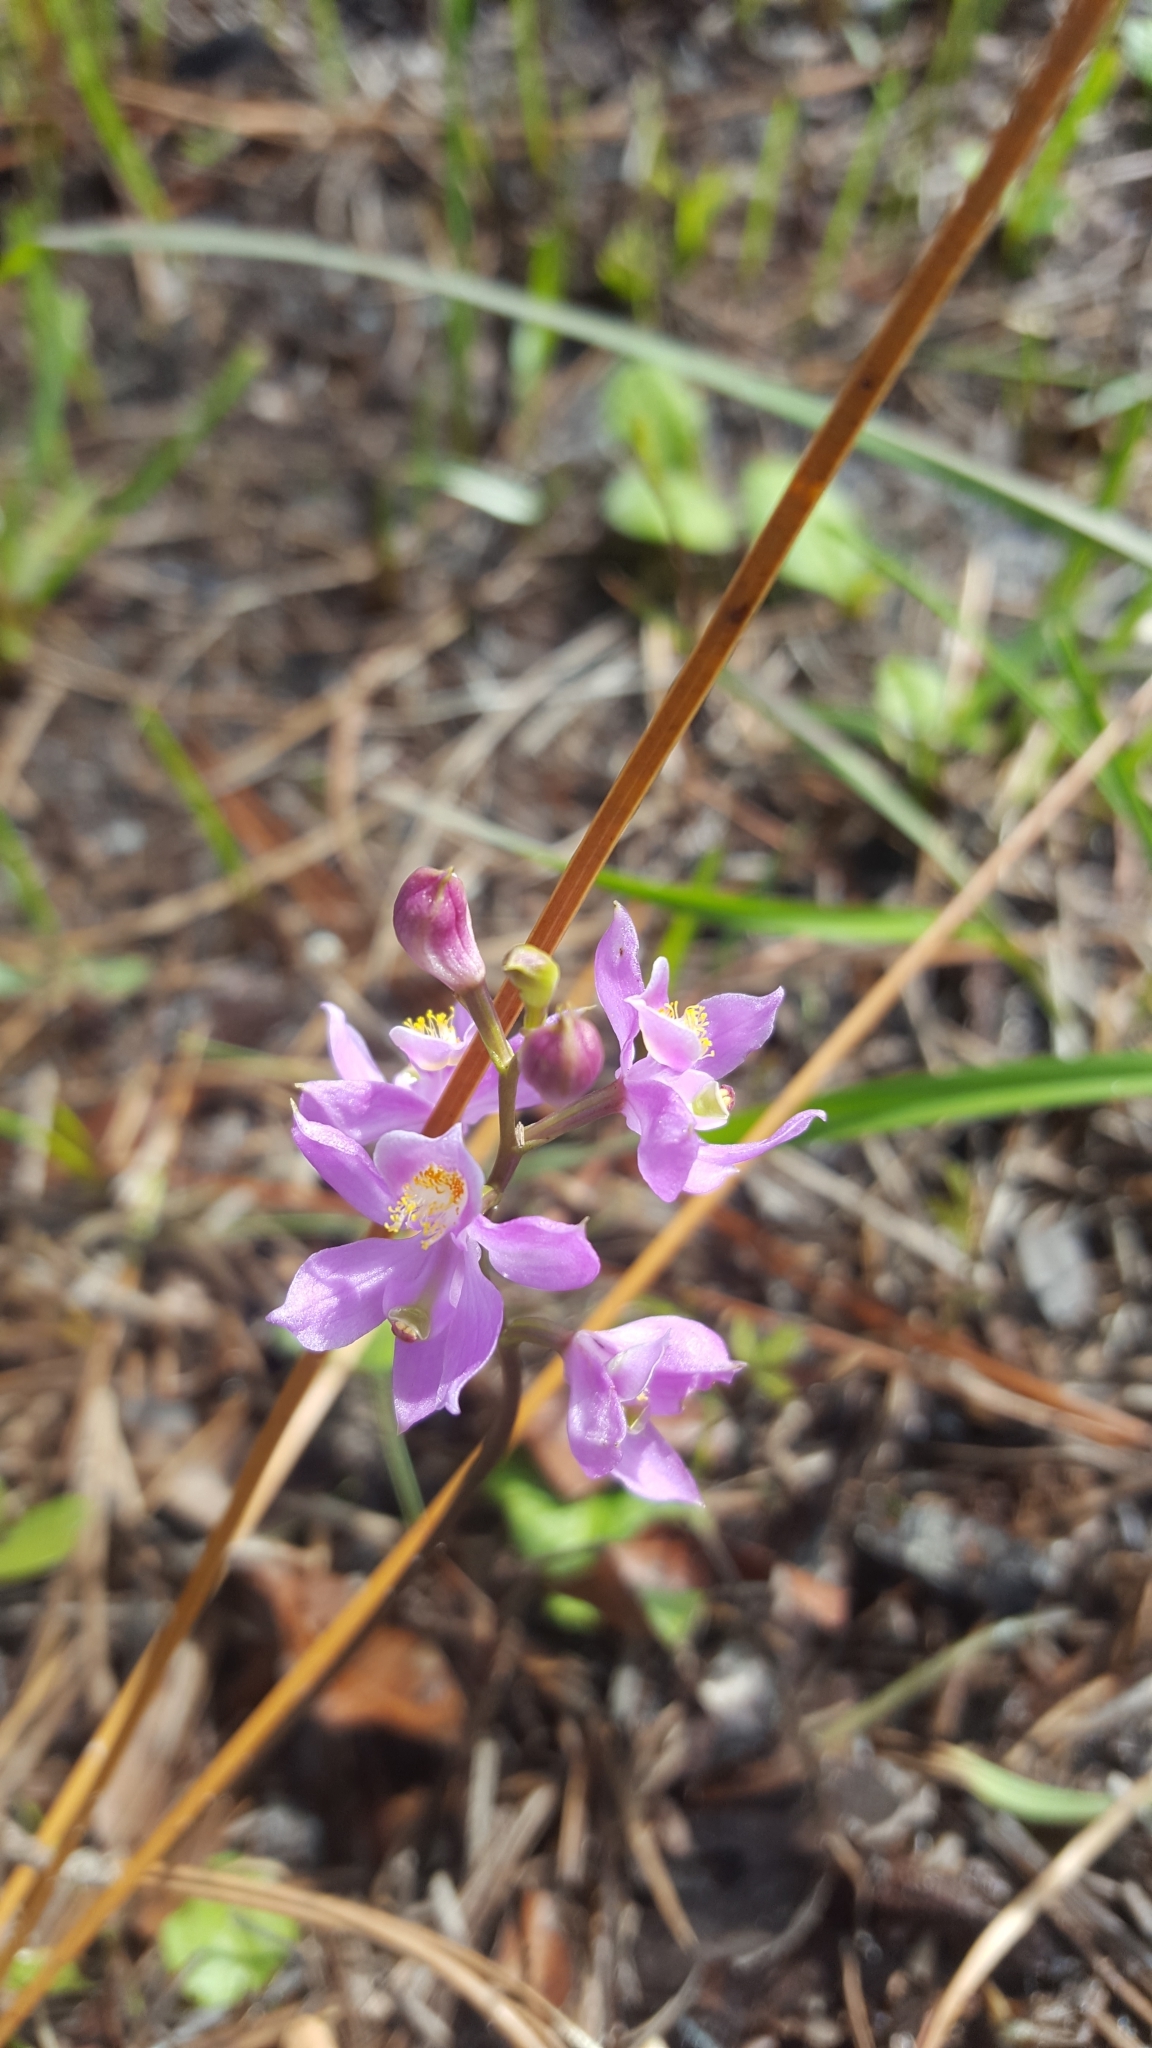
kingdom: Plantae
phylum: Tracheophyta
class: Liliopsida
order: Asparagales
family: Orchidaceae
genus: Calopogon
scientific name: Calopogon multiflorus
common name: Many-flowered grass-pink orchid
